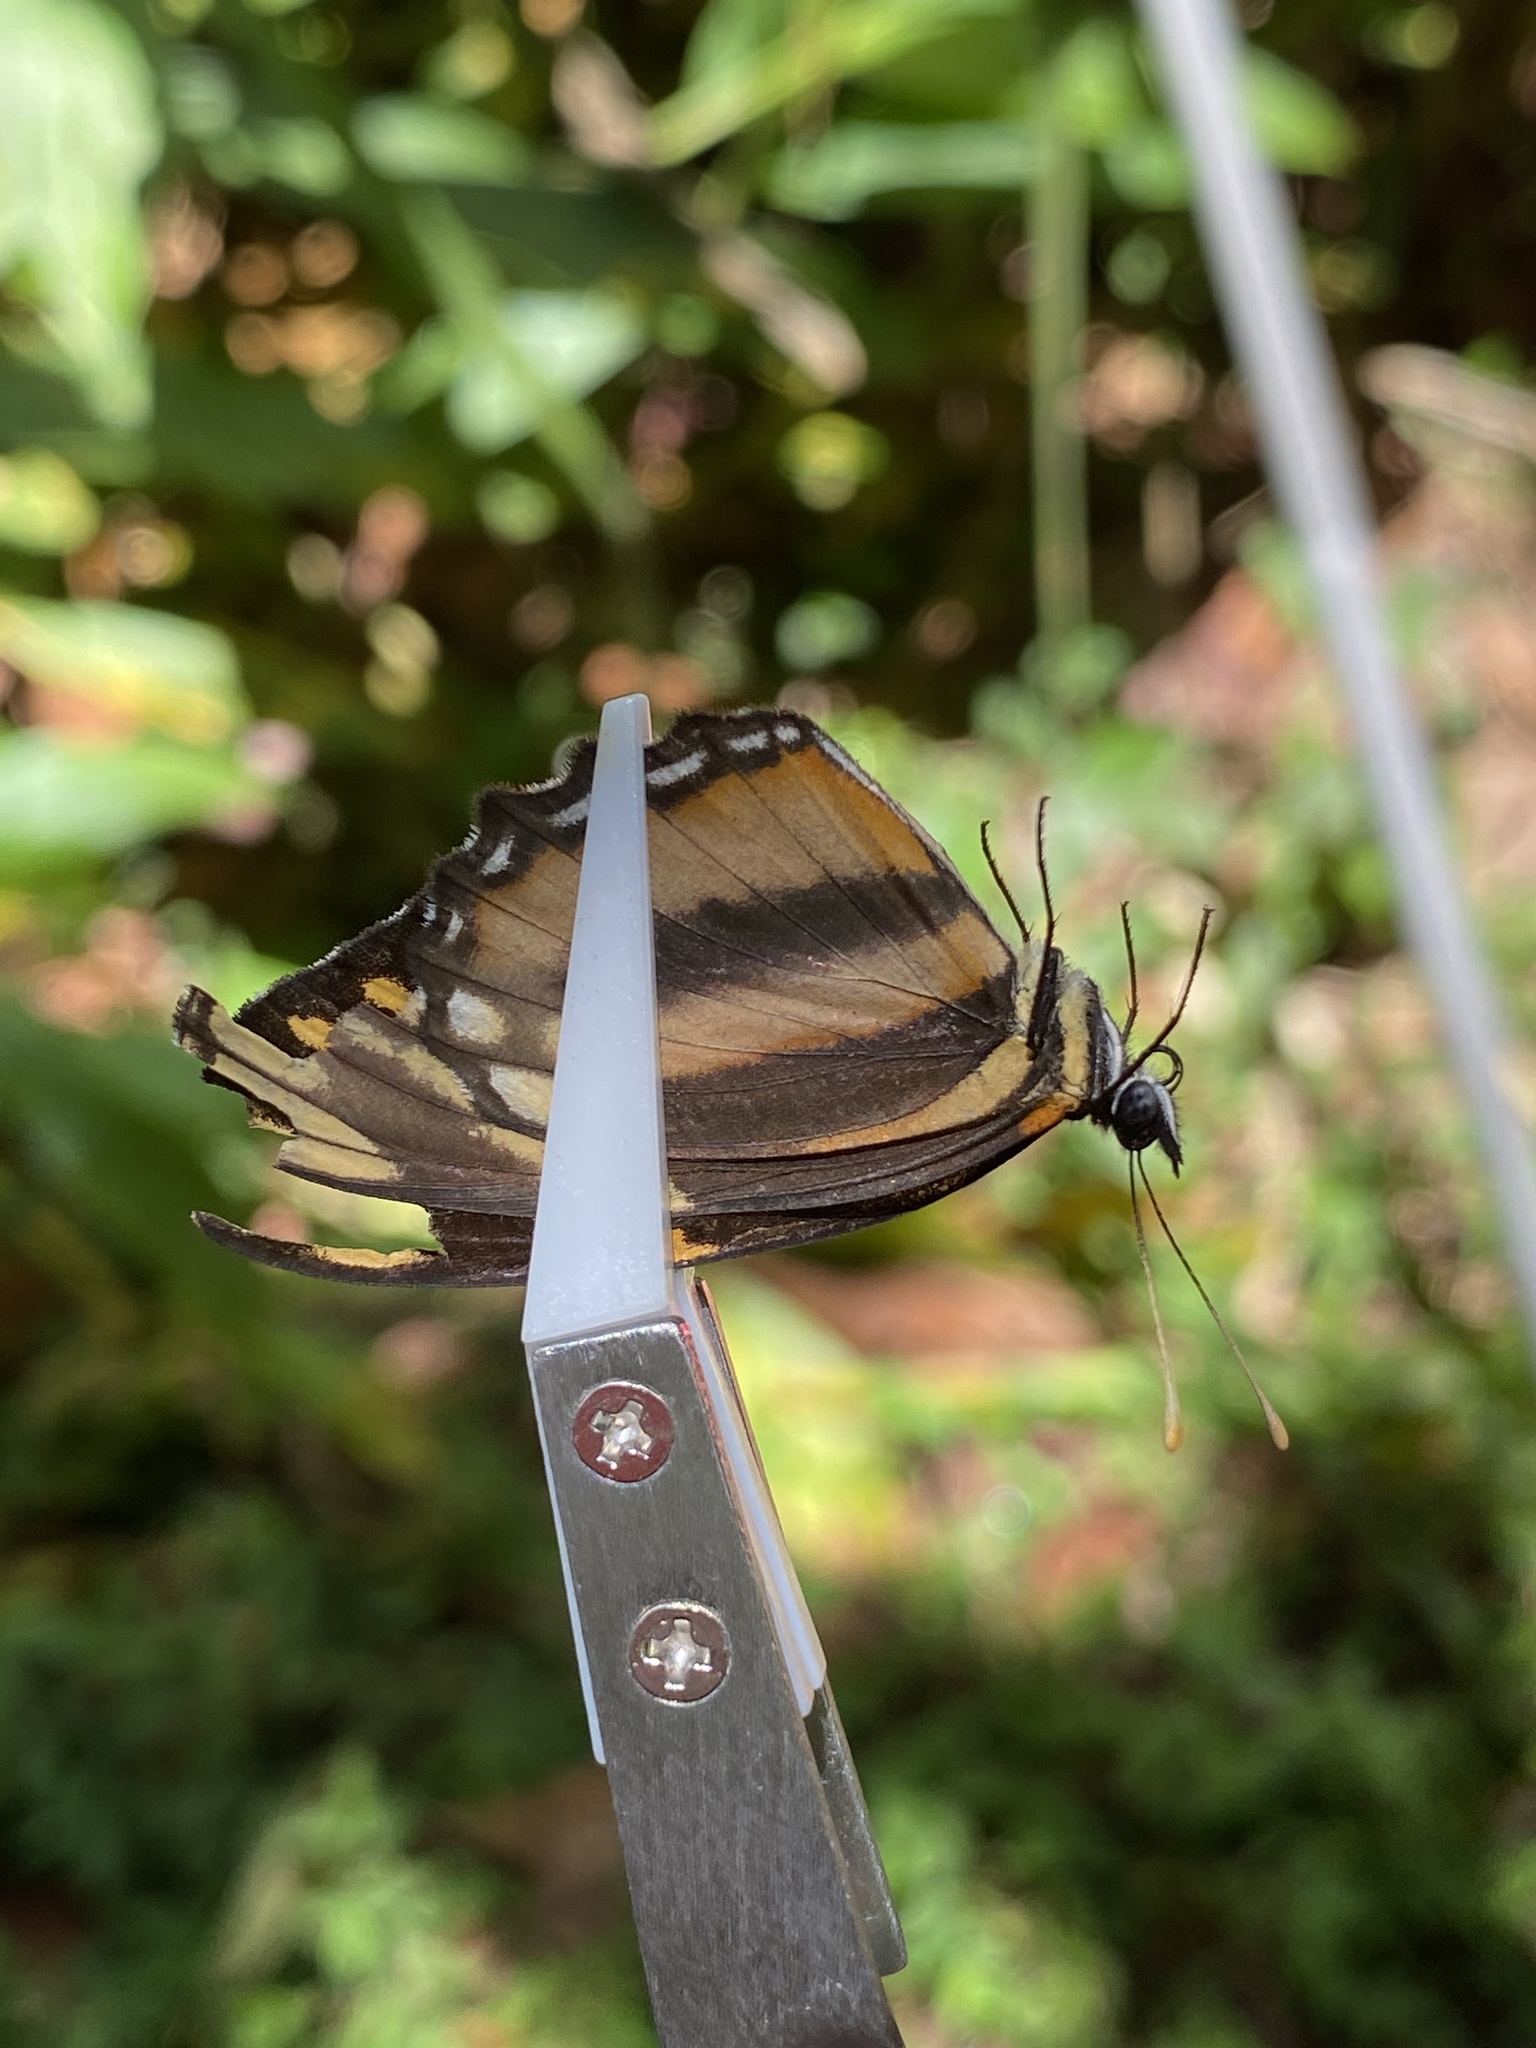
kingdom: Animalia
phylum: Arthropoda
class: Insecta
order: Lepidoptera
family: Nymphalidae
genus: Eresia
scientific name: Eresia phillyra
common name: Longwing crescent
